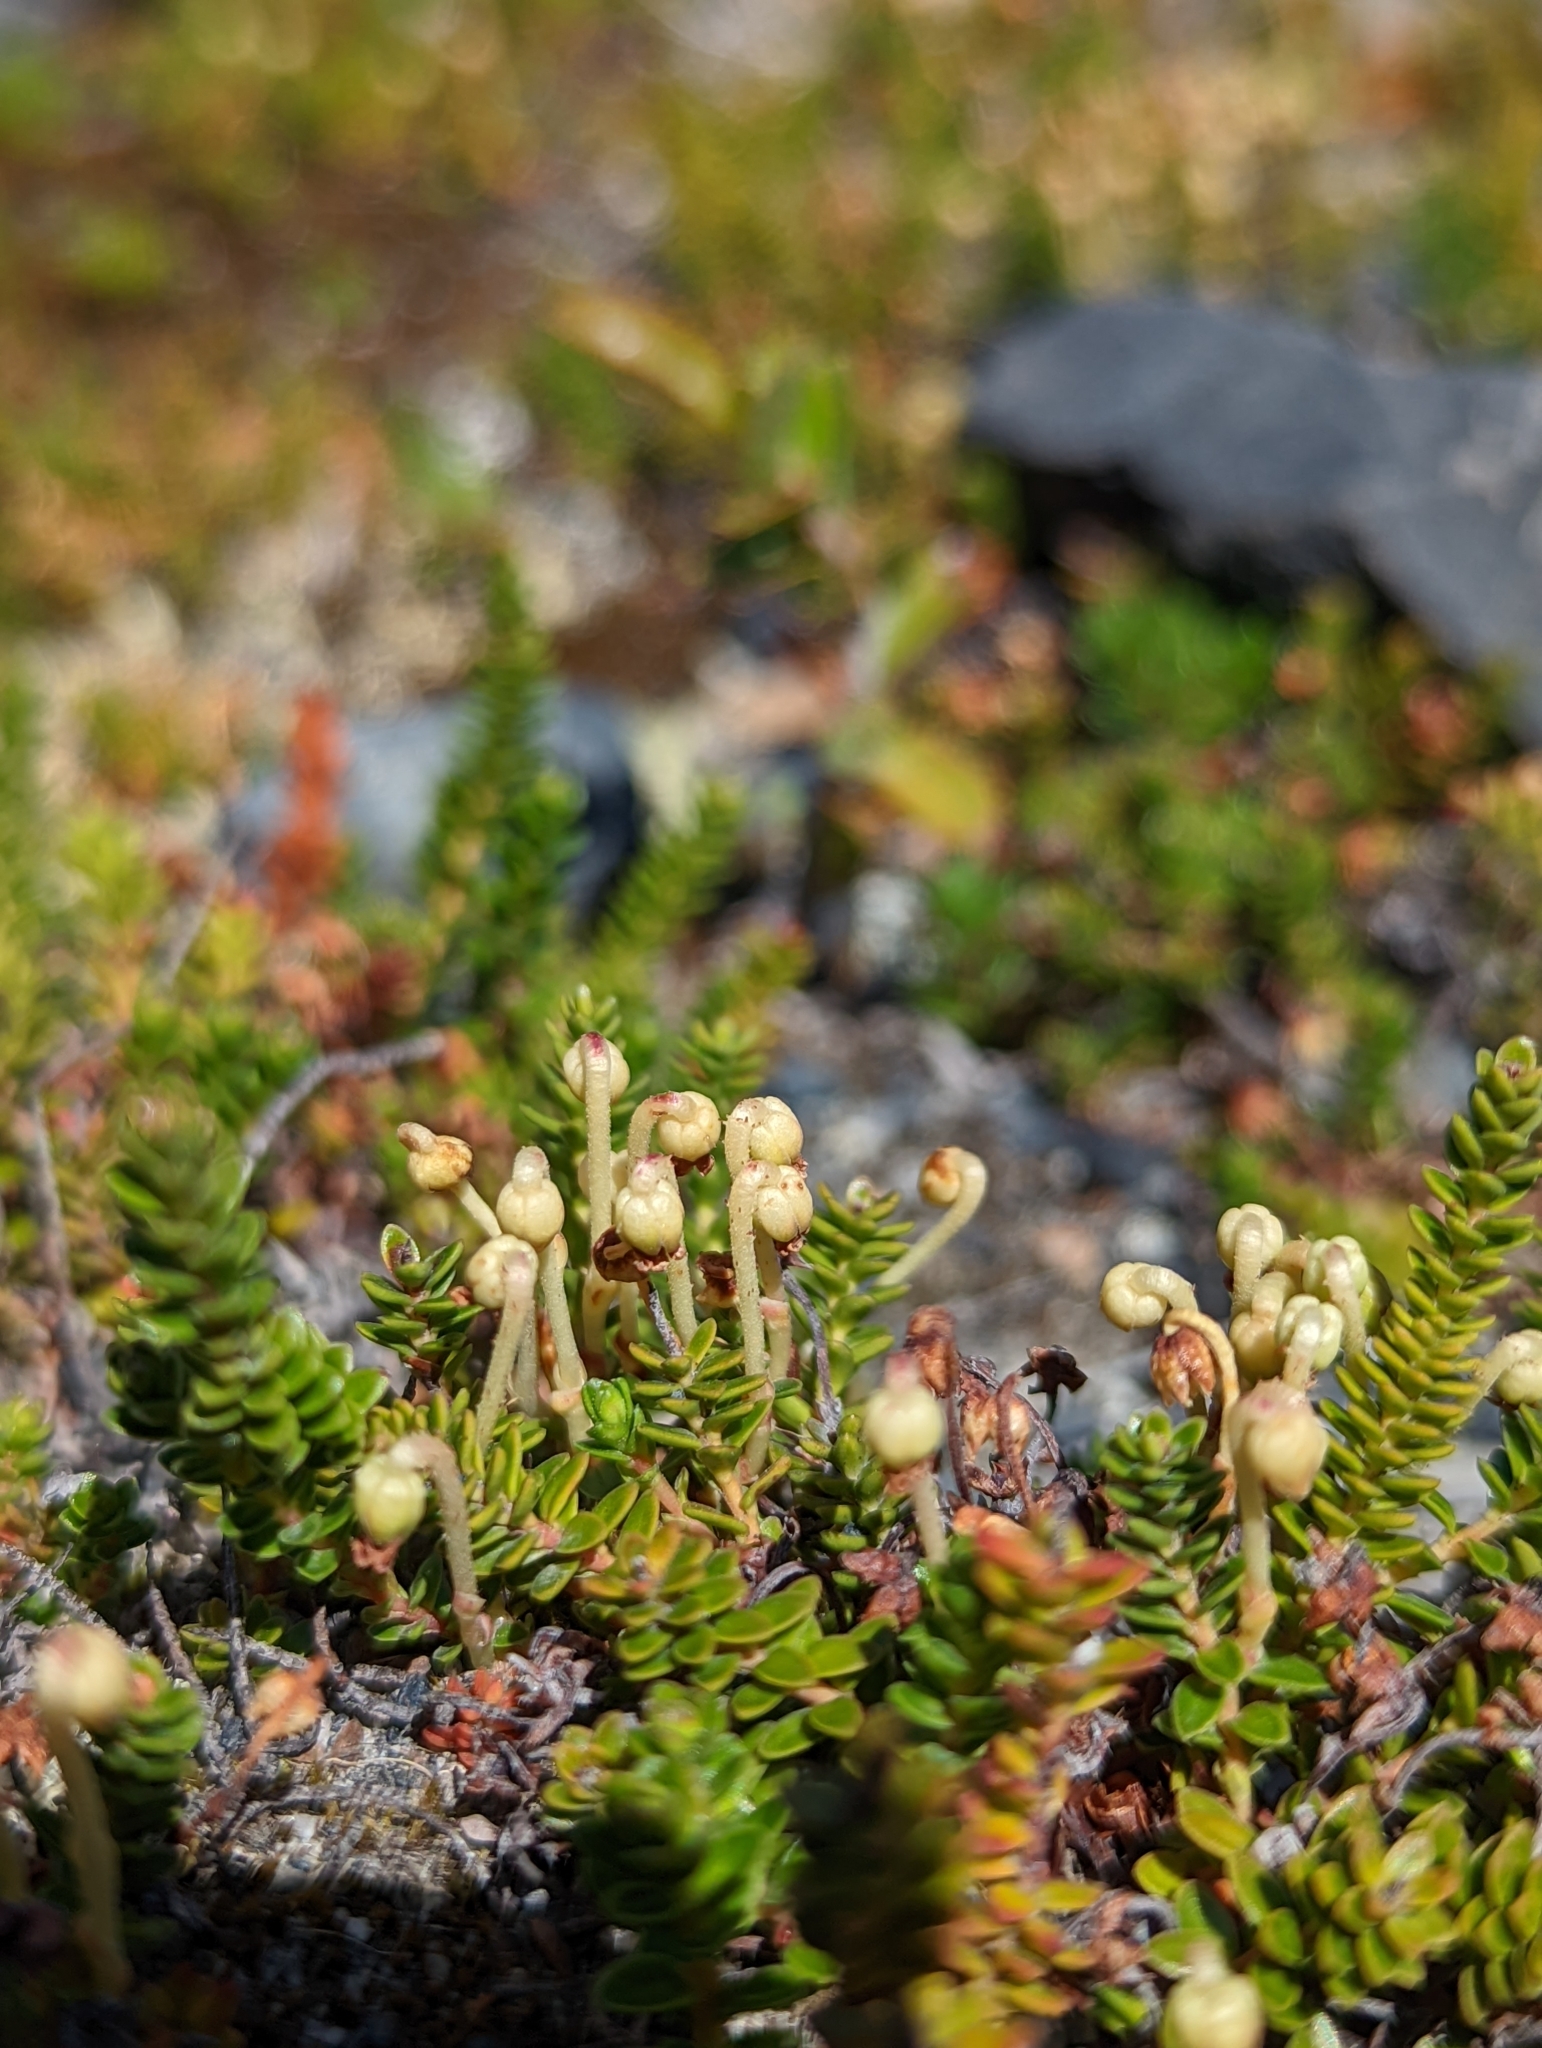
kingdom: Plantae
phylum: Tracheophyta
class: Magnoliopsida
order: Ericales
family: Ericaceae
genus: Gaultheria
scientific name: Gaultheria pumila
